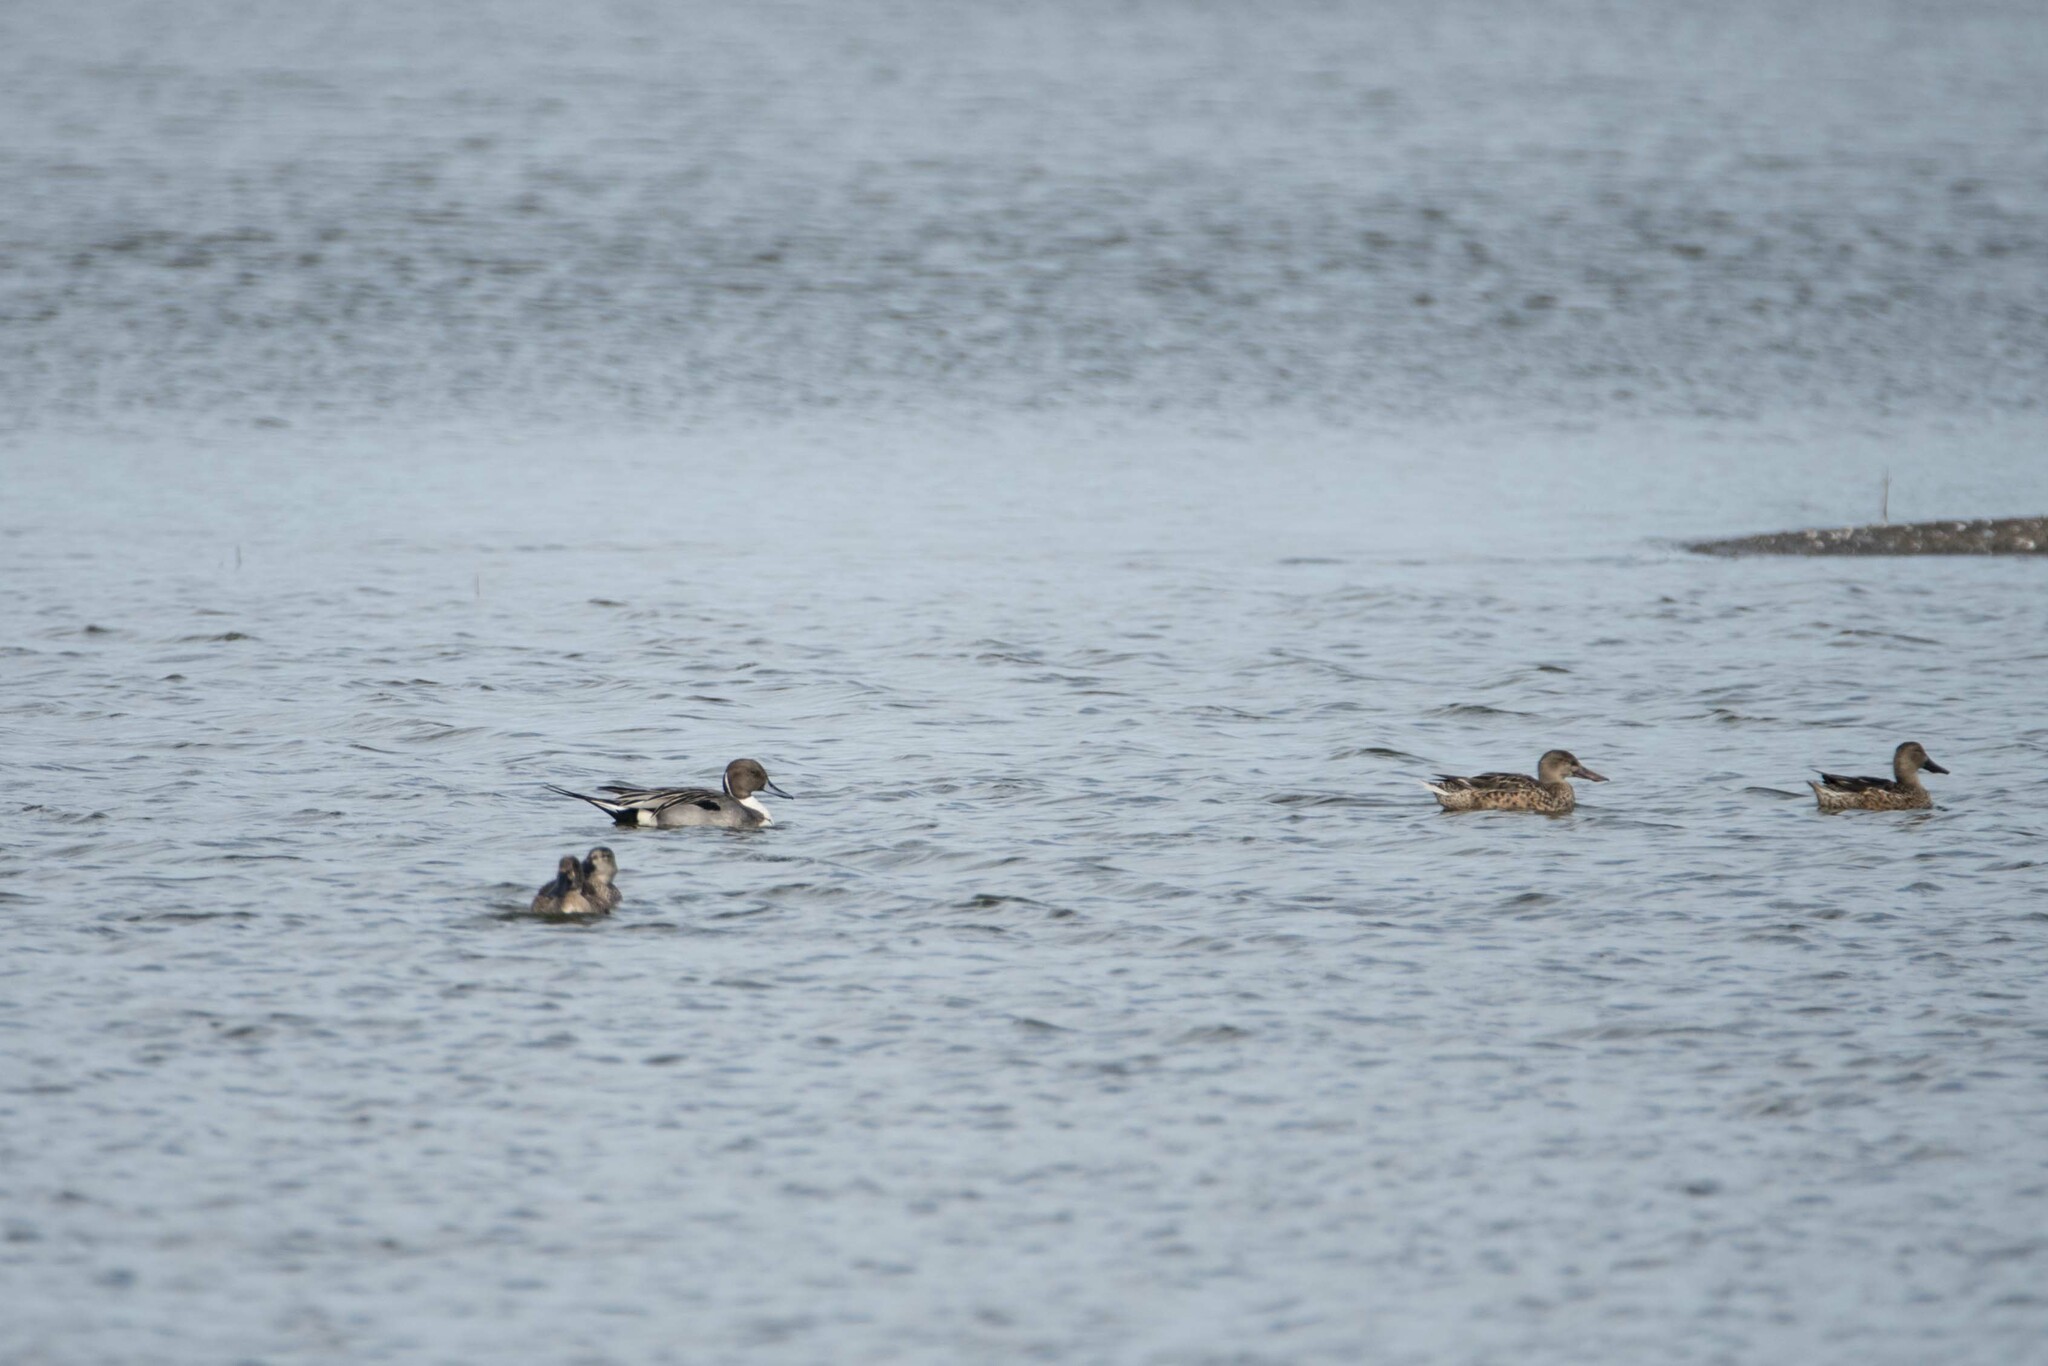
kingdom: Animalia
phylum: Chordata
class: Aves
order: Anseriformes
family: Anatidae
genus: Anas
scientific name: Anas acuta
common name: Northern pintail
